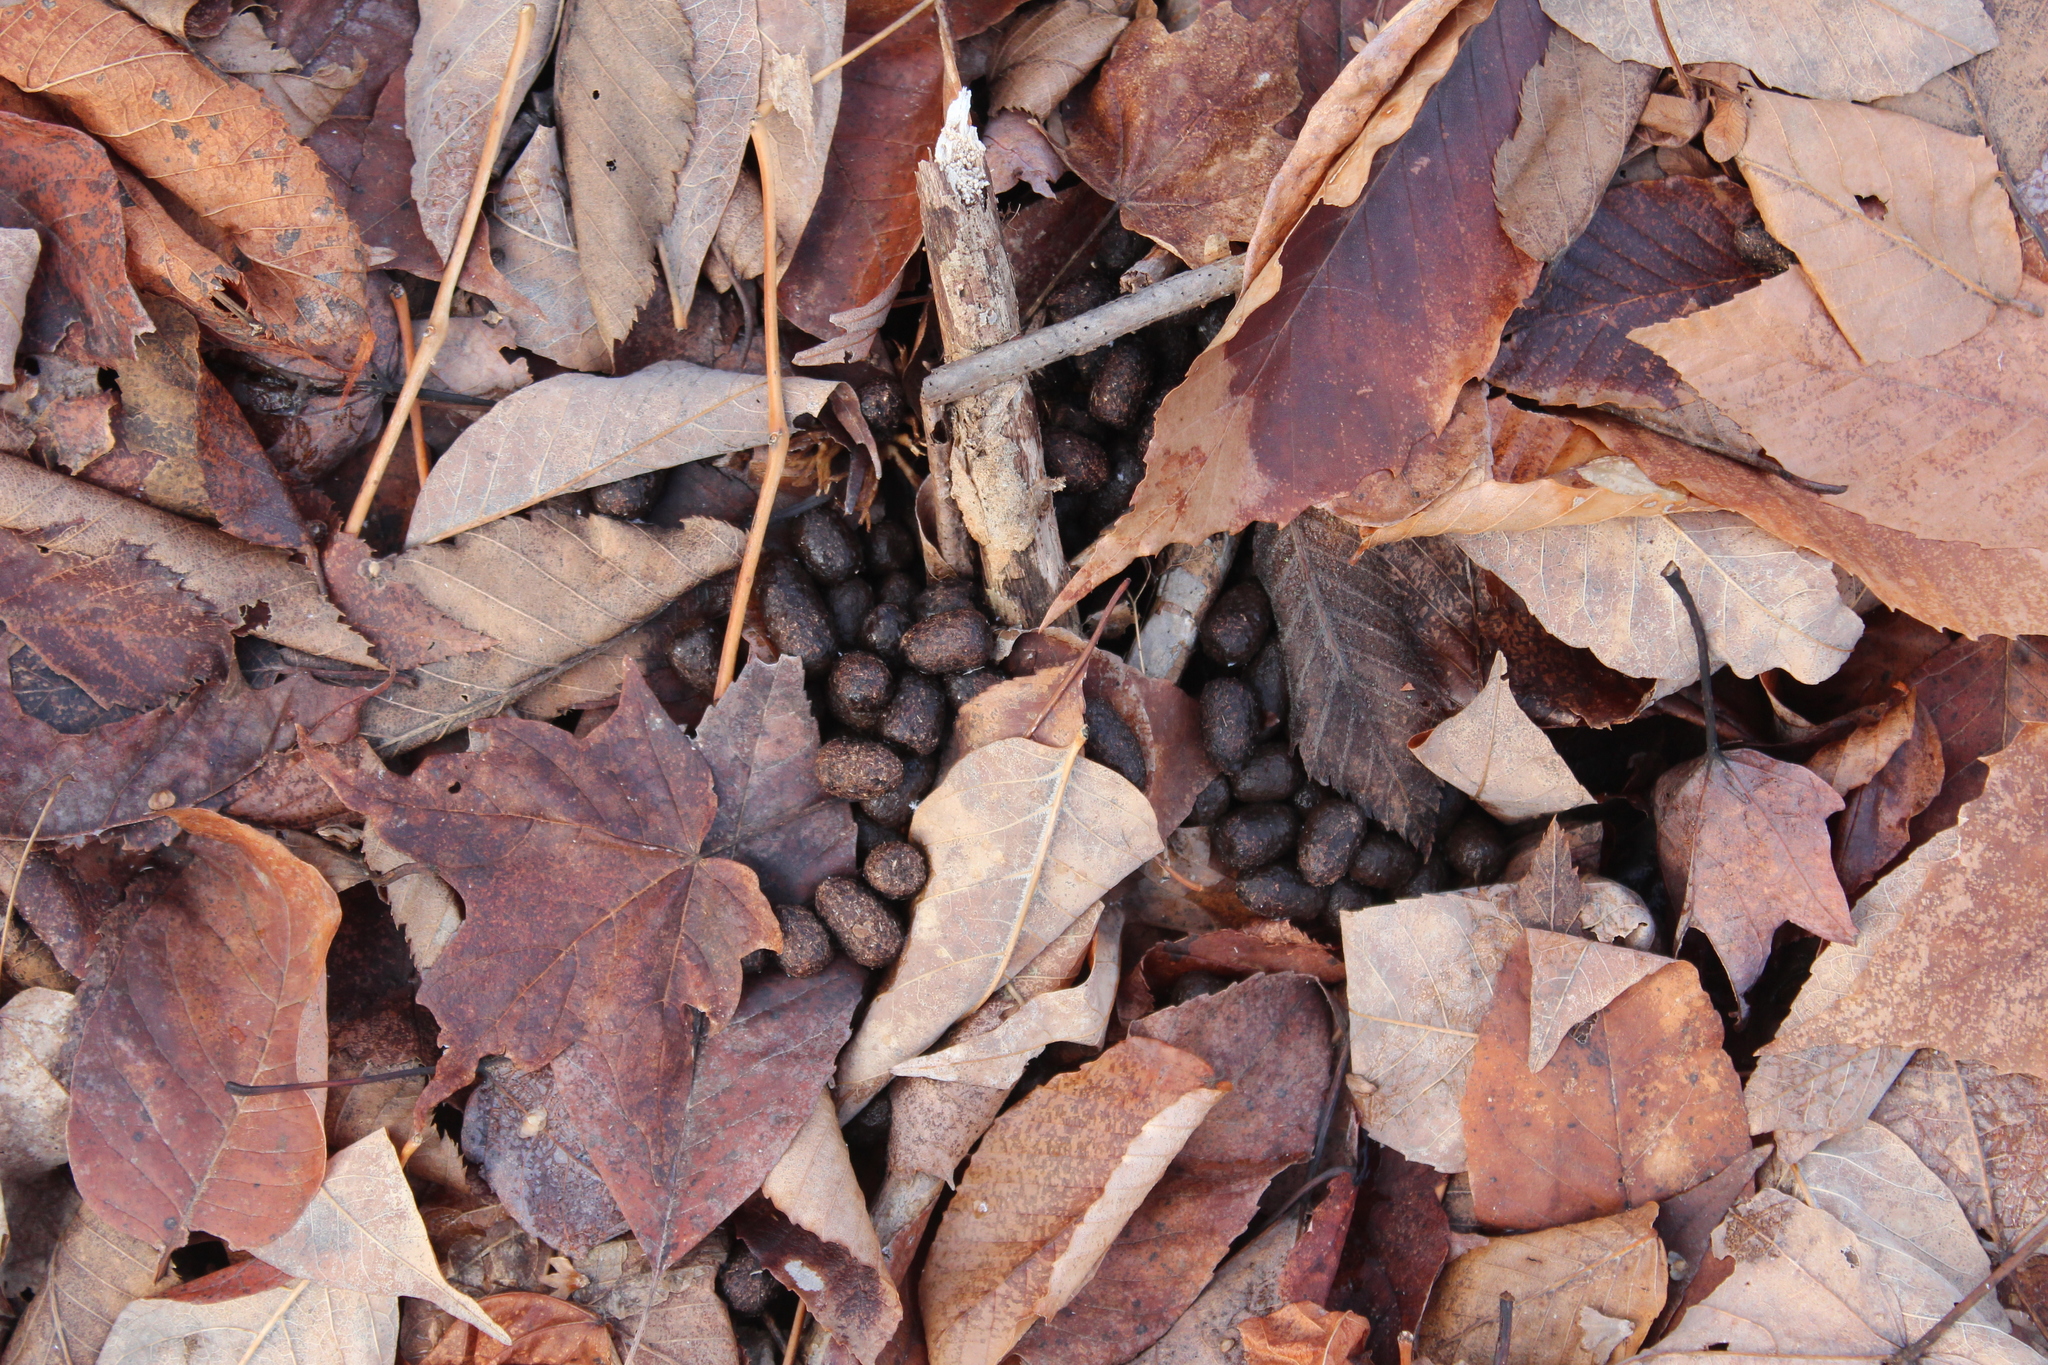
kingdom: Animalia
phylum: Chordata
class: Mammalia
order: Artiodactyla
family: Cervidae
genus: Odocoileus
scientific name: Odocoileus virginianus
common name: White-tailed deer
